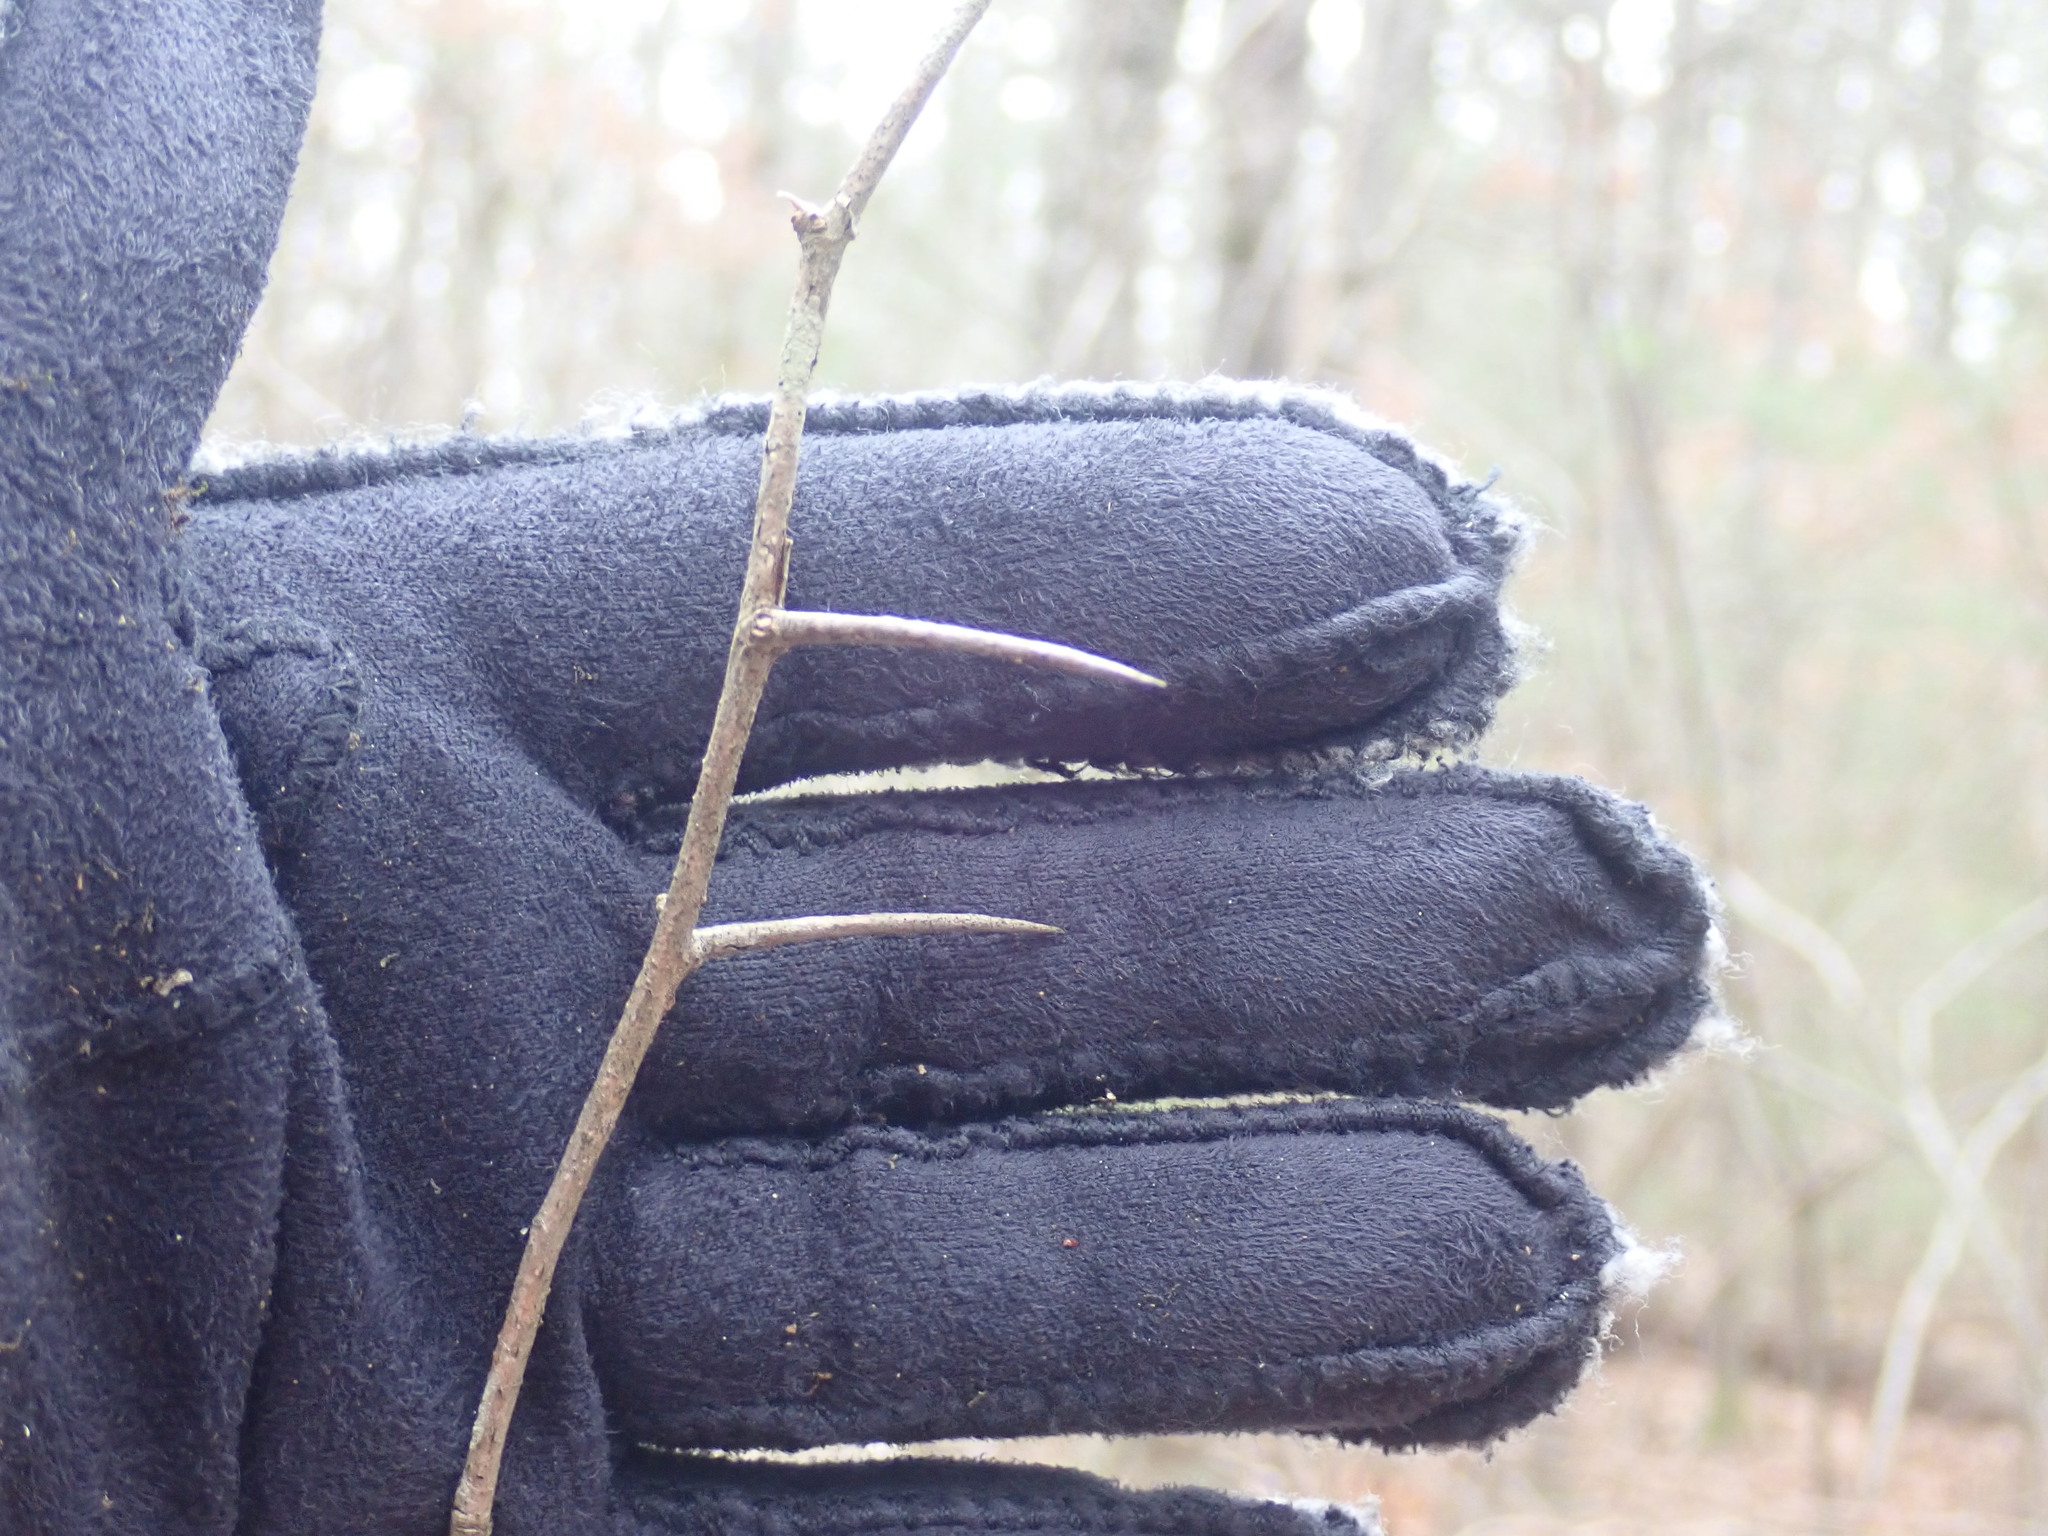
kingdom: Plantae
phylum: Tracheophyta
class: Magnoliopsida
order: Rosales
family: Rosaceae
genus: Crataegus
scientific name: Crataegus
